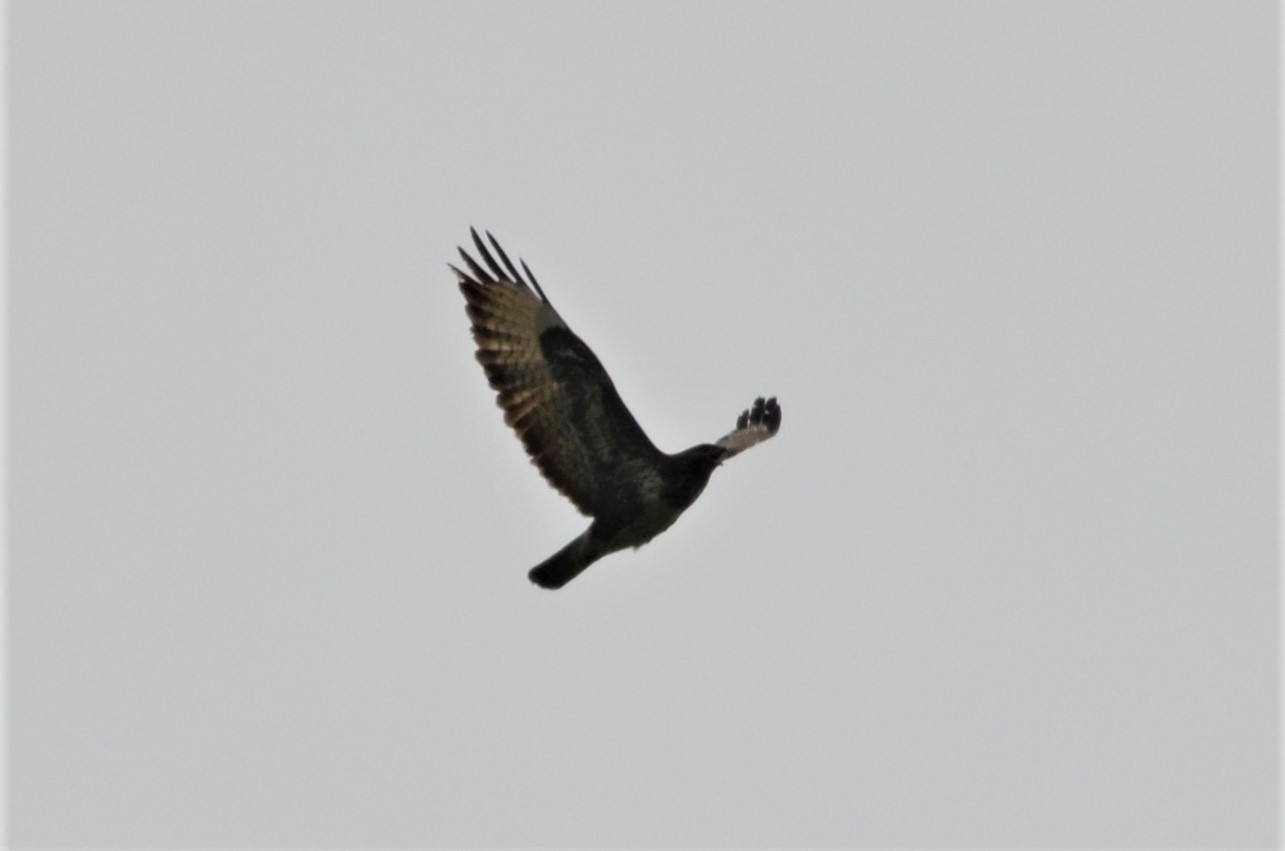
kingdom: Animalia
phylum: Chordata
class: Aves
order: Accipitriformes
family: Accipitridae
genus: Buteo
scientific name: Buteo buteo
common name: Common buzzard
